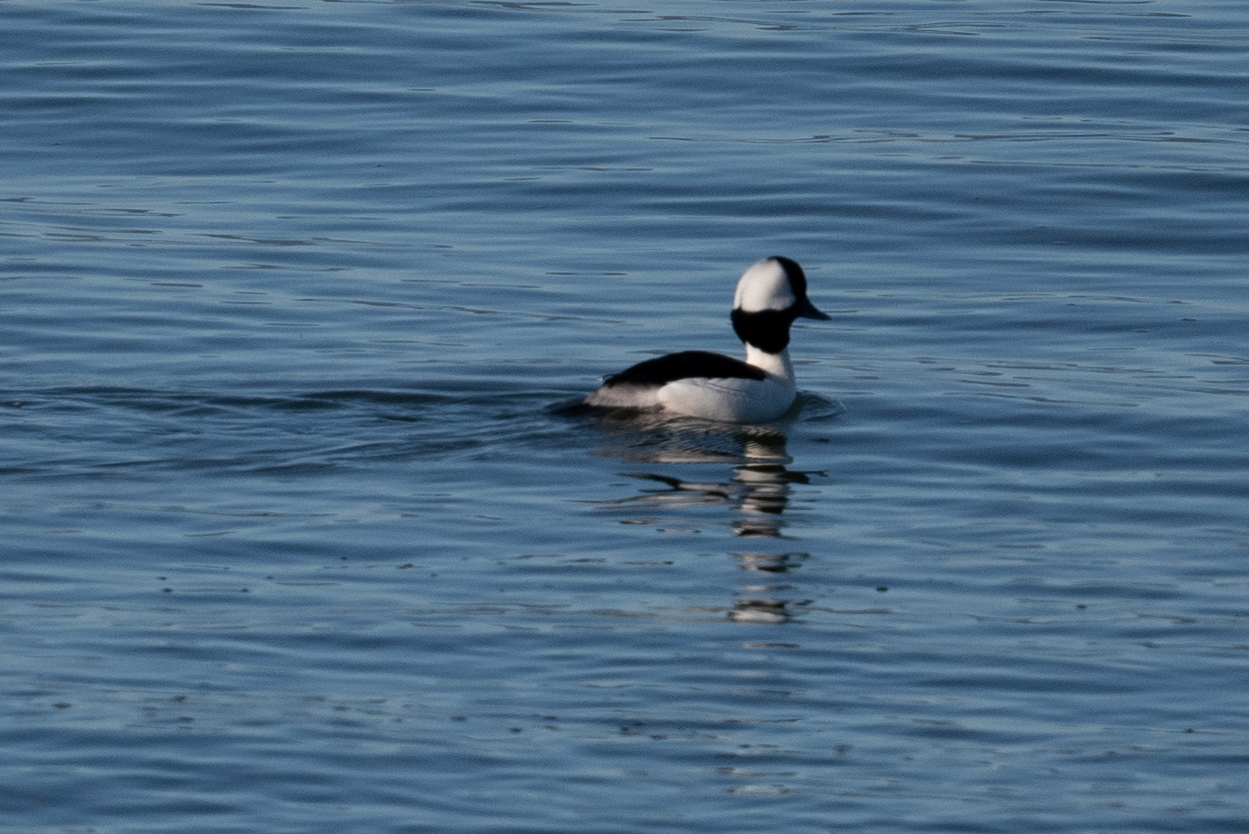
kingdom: Animalia
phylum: Chordata
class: Aves
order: Anseriformes
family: Anatidae
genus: Bucephala
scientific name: Bucephala albeola
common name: Bufflehead
